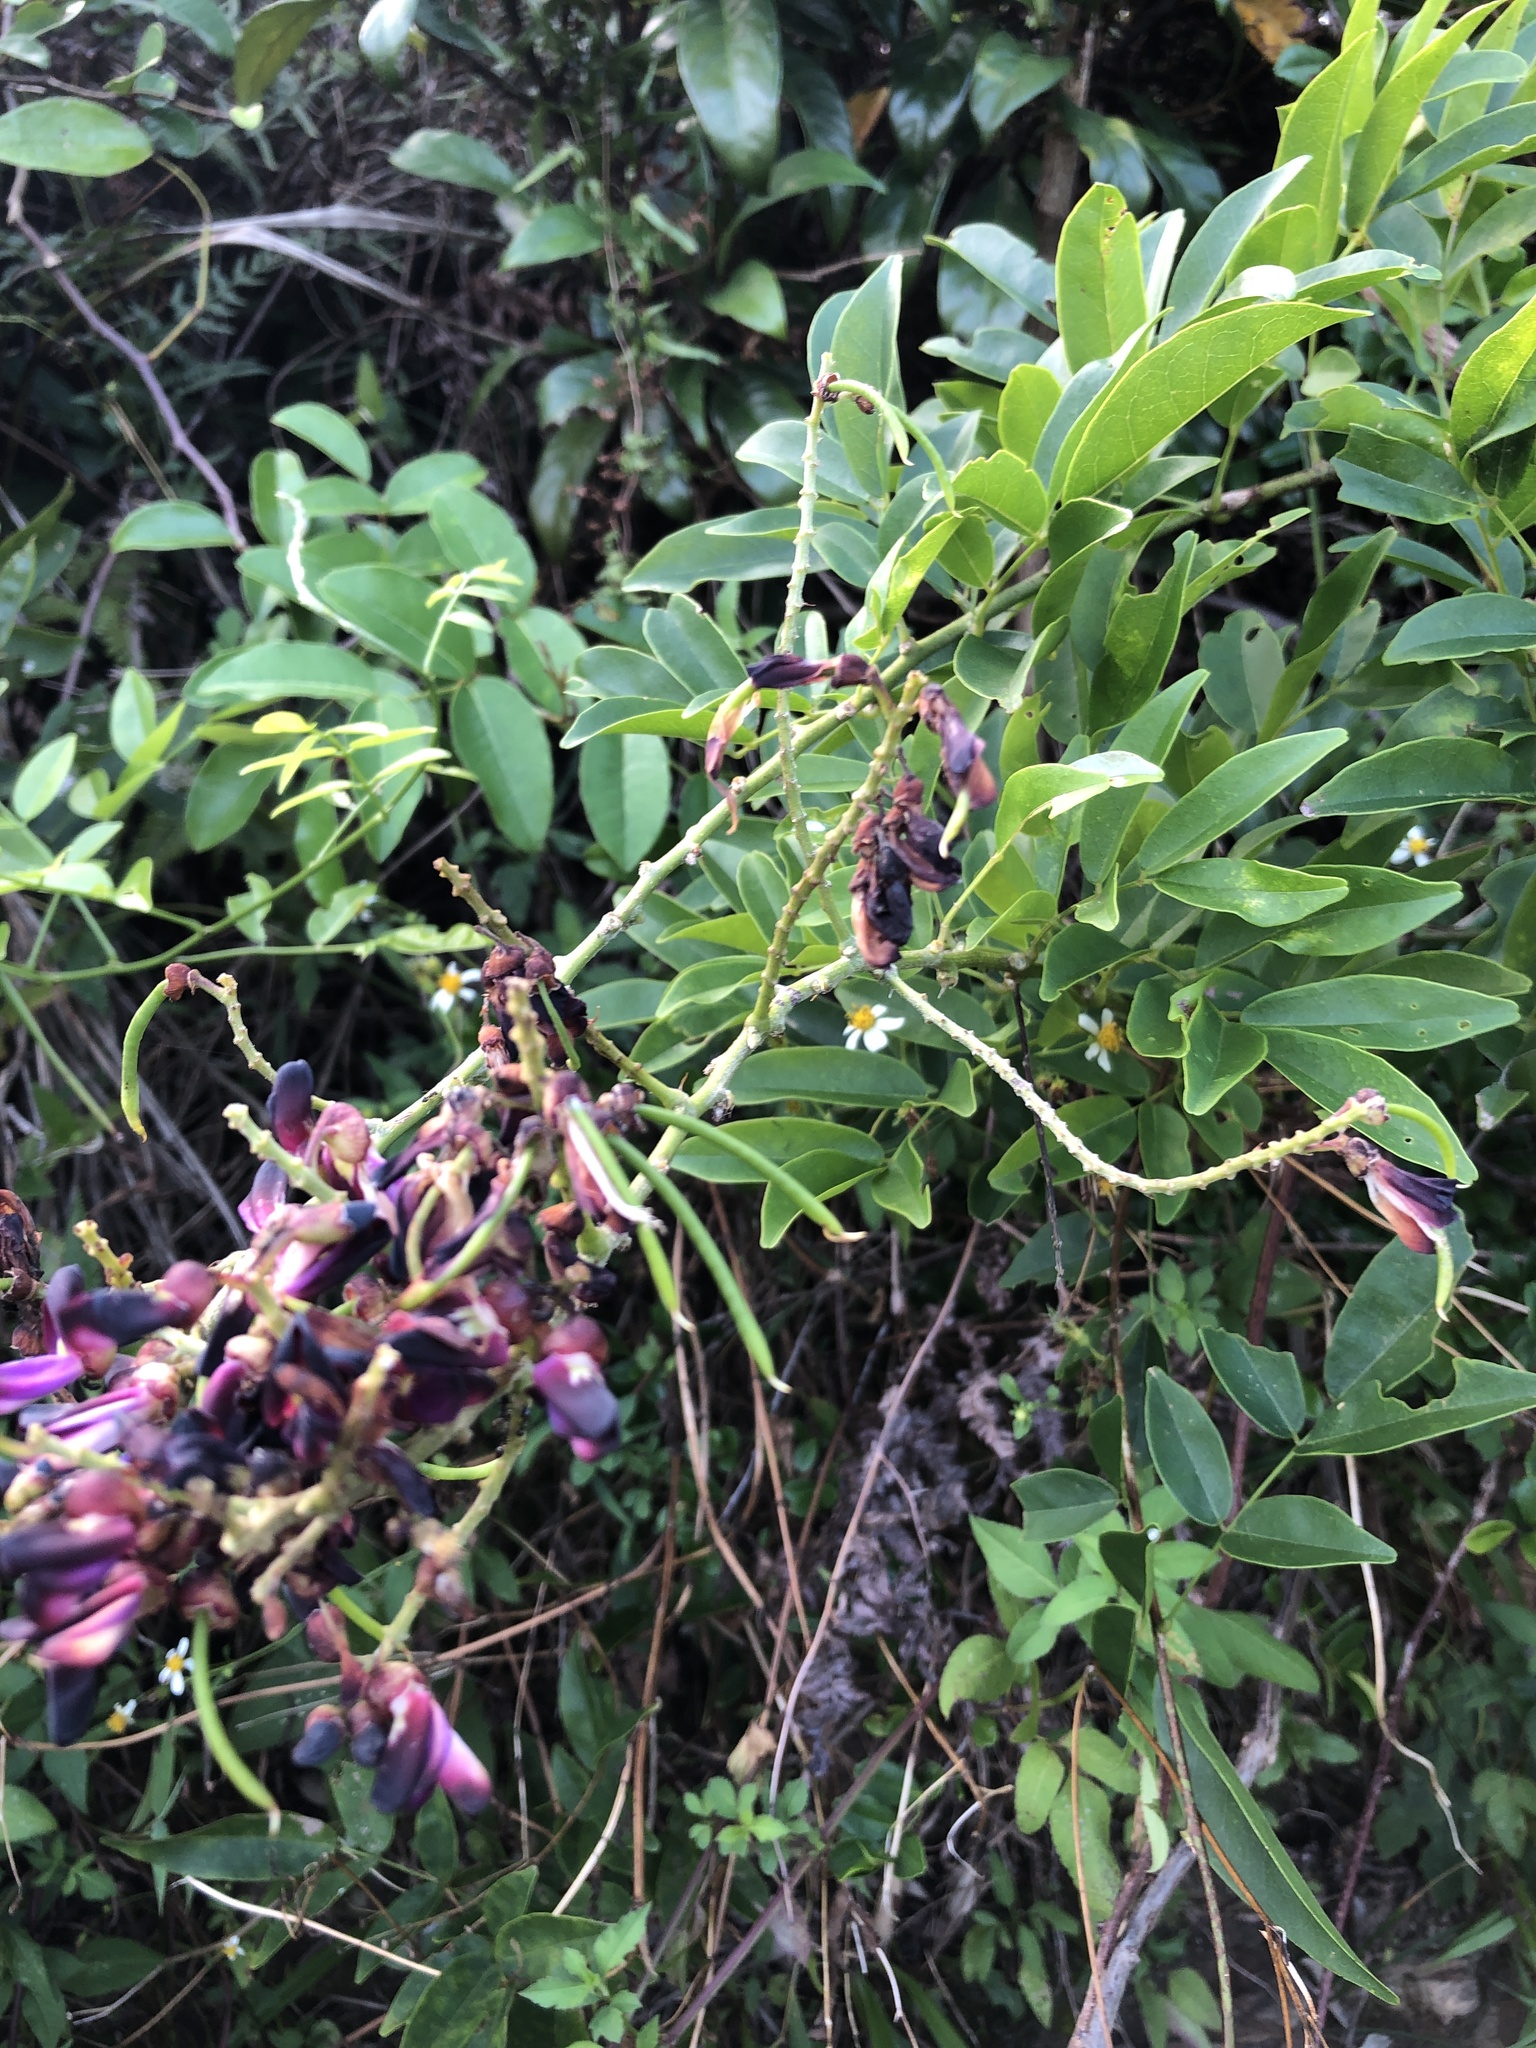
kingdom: Plantae
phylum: Tracheophyta
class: Magnoliopsida
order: Fabales
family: Fabaceae
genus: Wisteriopsis
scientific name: Wisteriopsis reticulata
